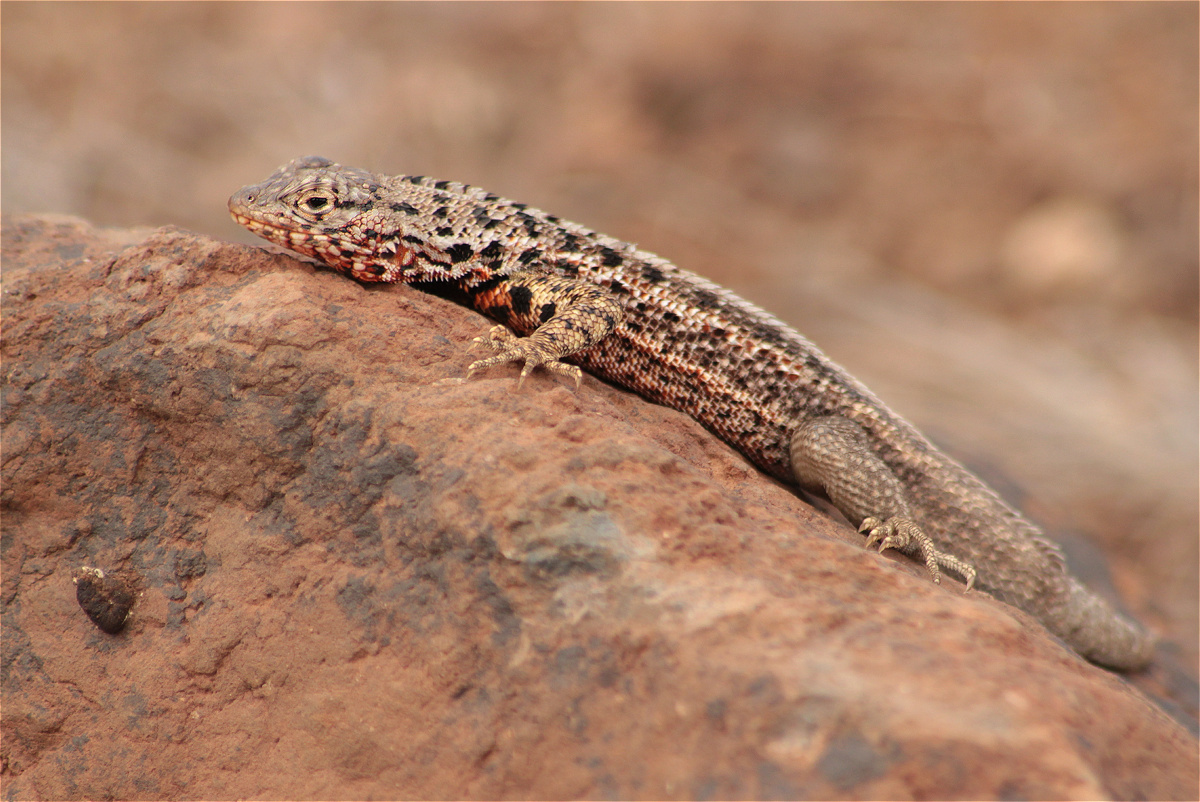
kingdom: Animalia
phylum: Chordata
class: Squamata
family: Tropiduridae
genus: Microlophus
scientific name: Microlophus indefatigabilis
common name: Galapagos lava lizard
